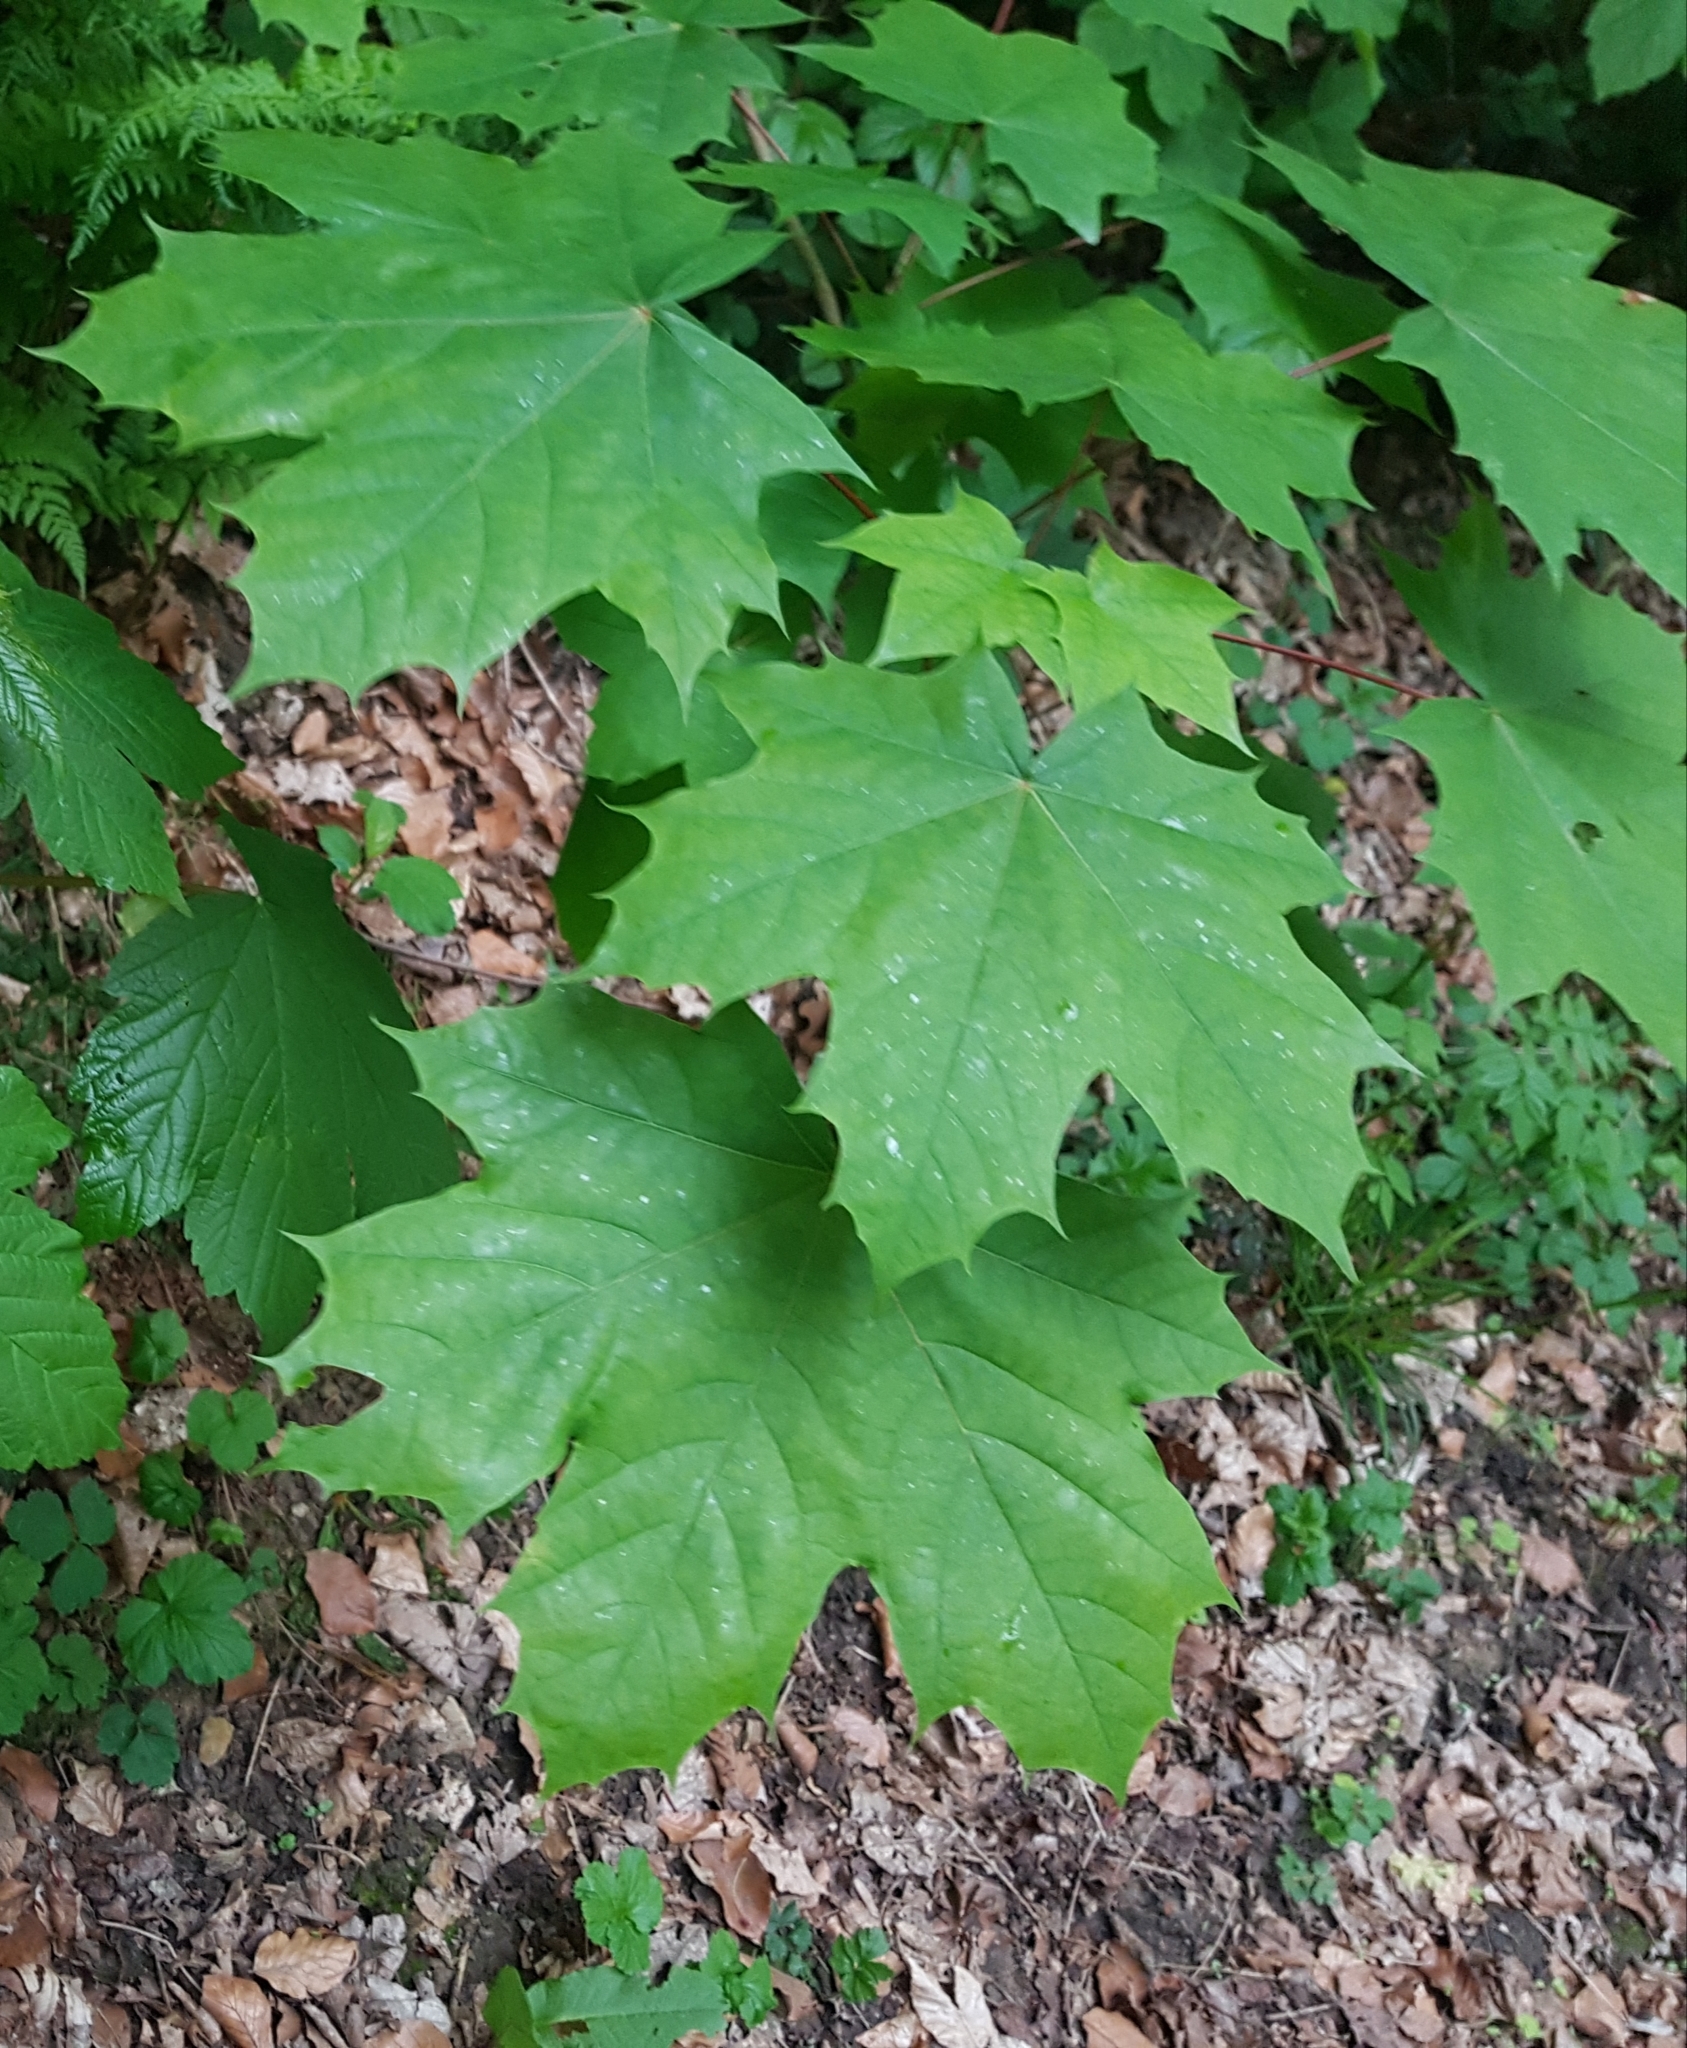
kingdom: Plantae
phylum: Tracheophyta
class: Magnoliopsida
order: Sapindales
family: Sapindaceae
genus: Acer
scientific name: Acer platanoides
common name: Norway maple
